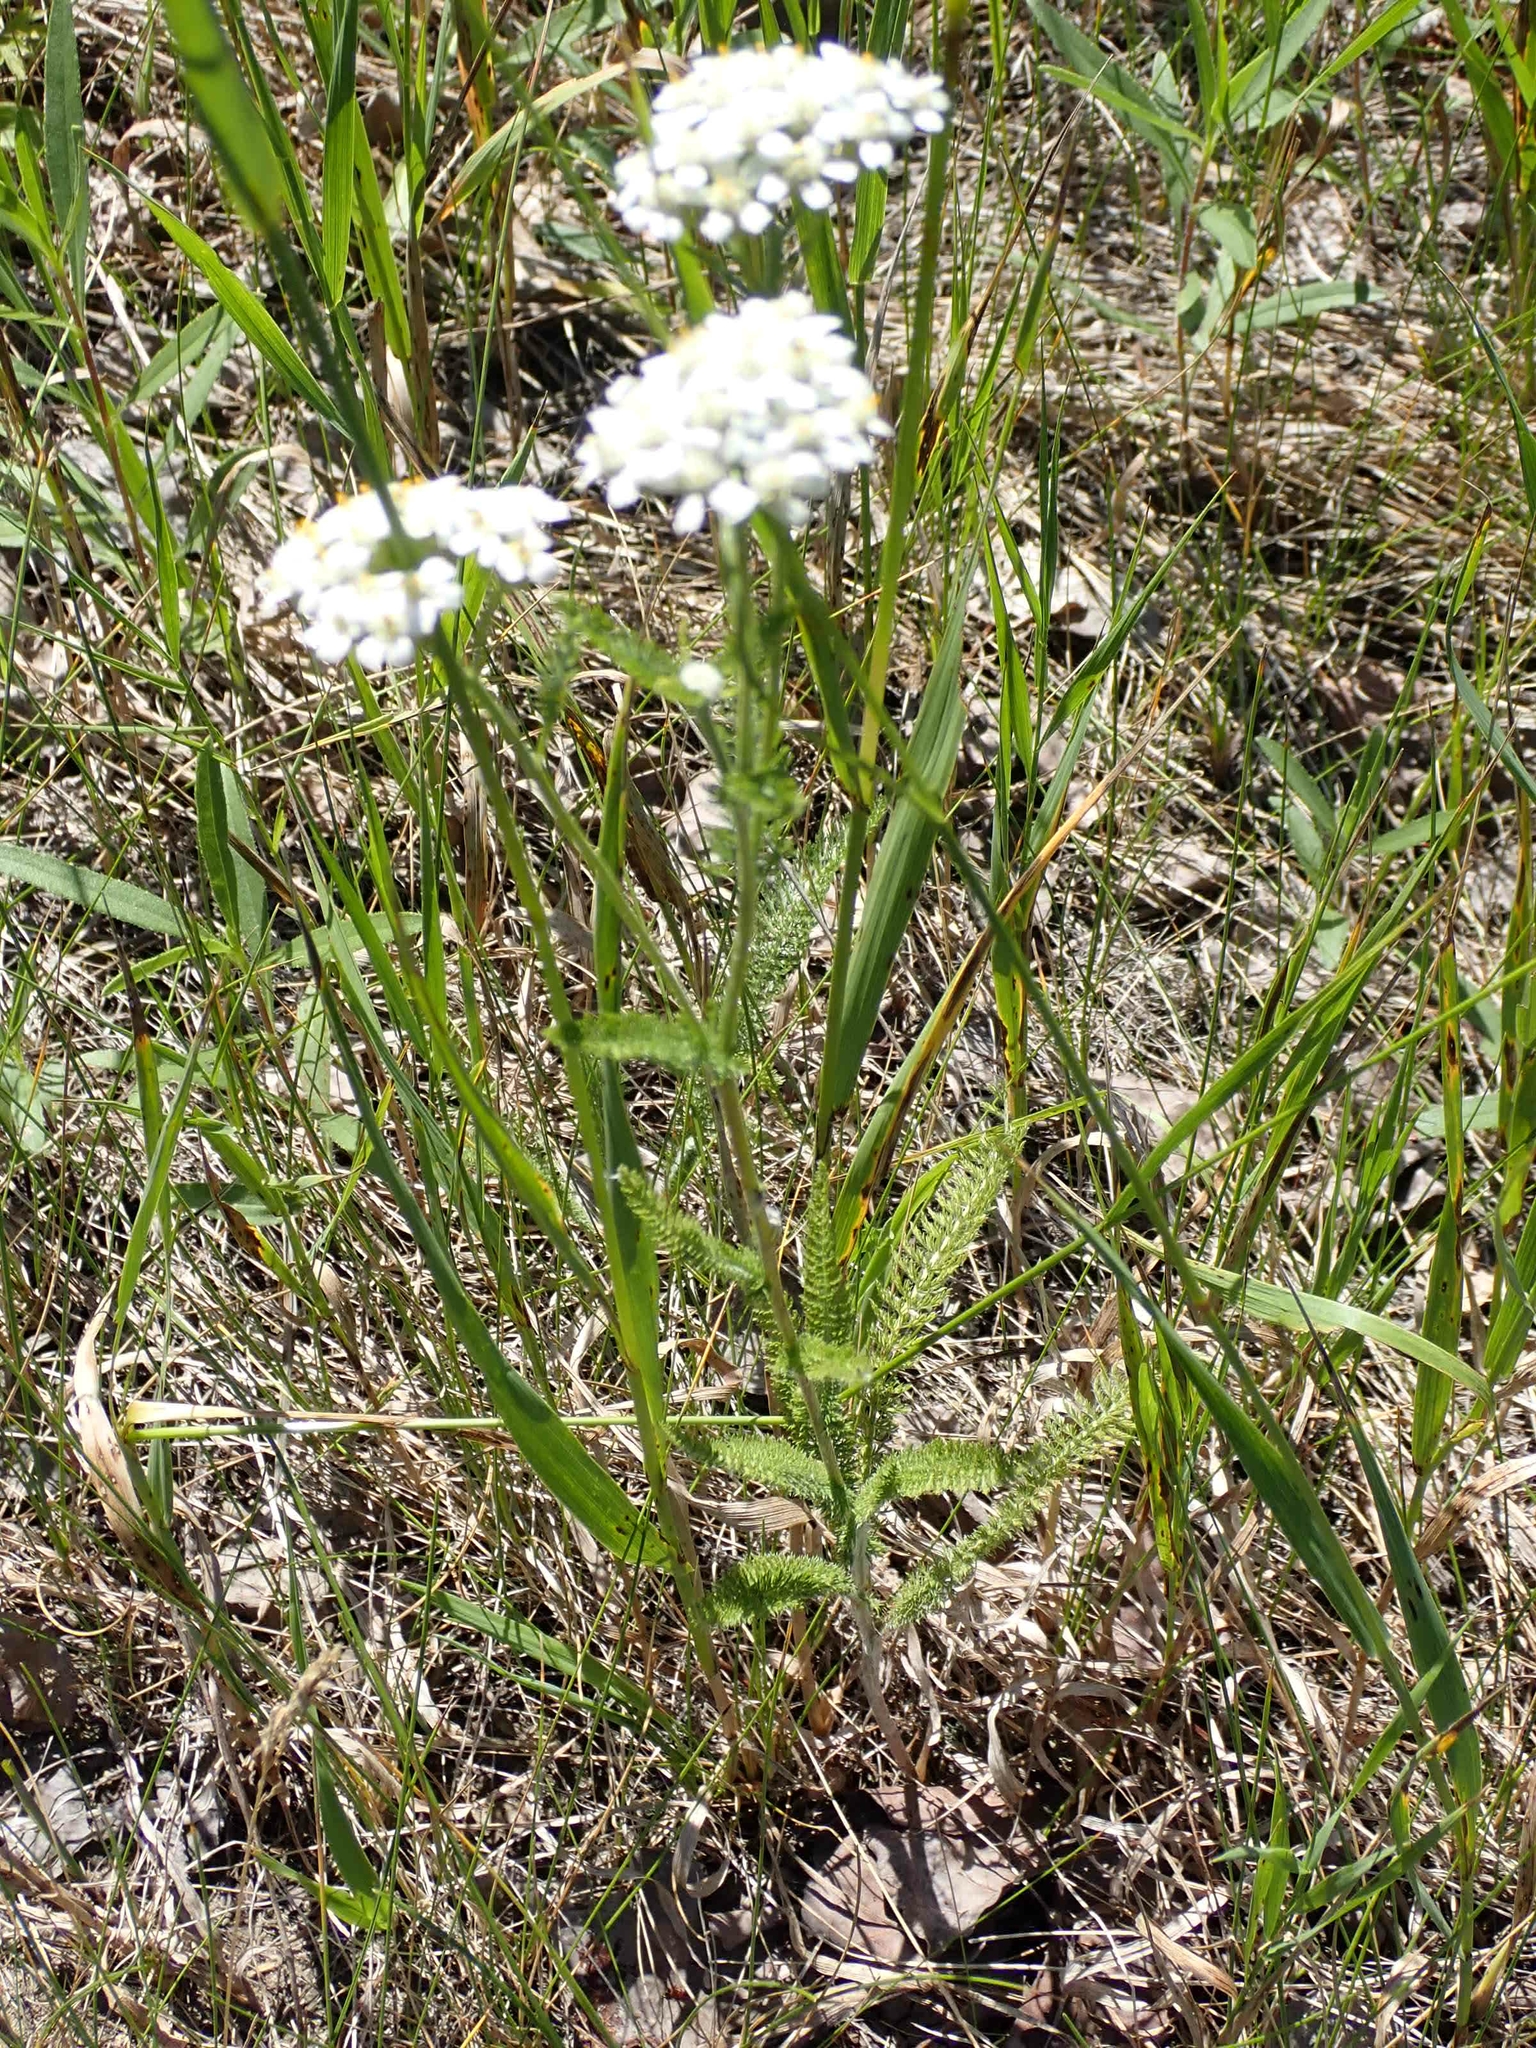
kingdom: Plantae
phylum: Tracheophyta
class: Magnoliopsida
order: Asterales
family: Asteraceae
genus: Achillea
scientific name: Achillea millefolium
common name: Yarrow
